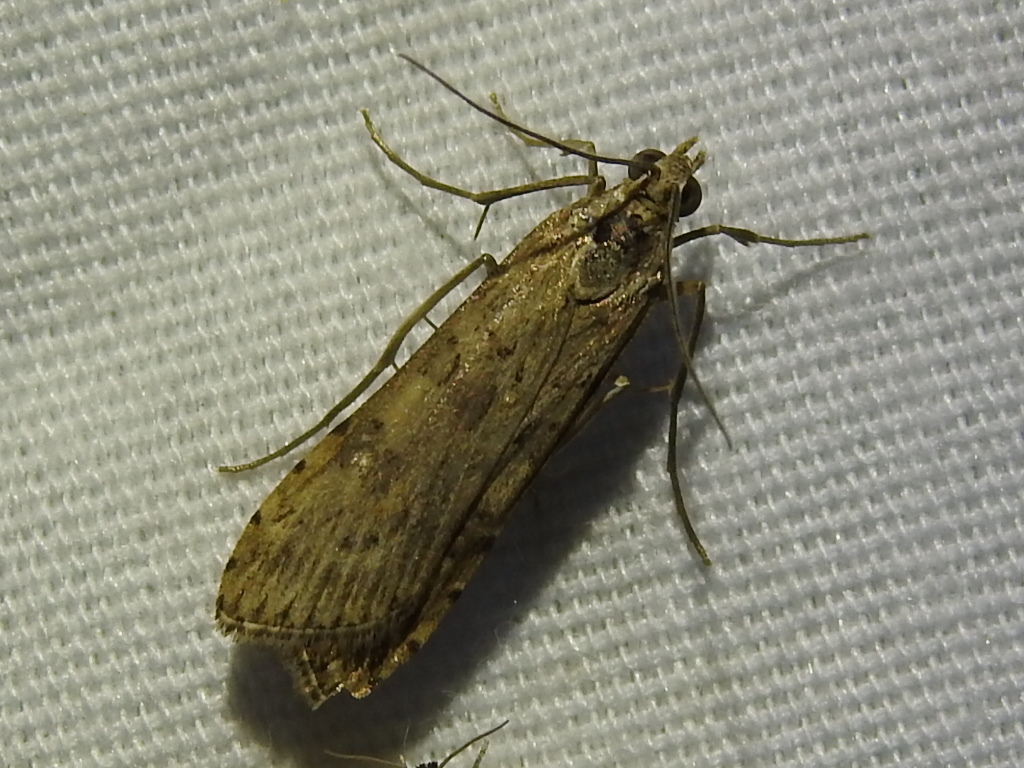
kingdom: Animalia
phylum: Arthropoda
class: Insecta
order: Lepidoptera
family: Crambidae
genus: Nomophila
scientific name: Nomophila nearctica
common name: American rush veneer
